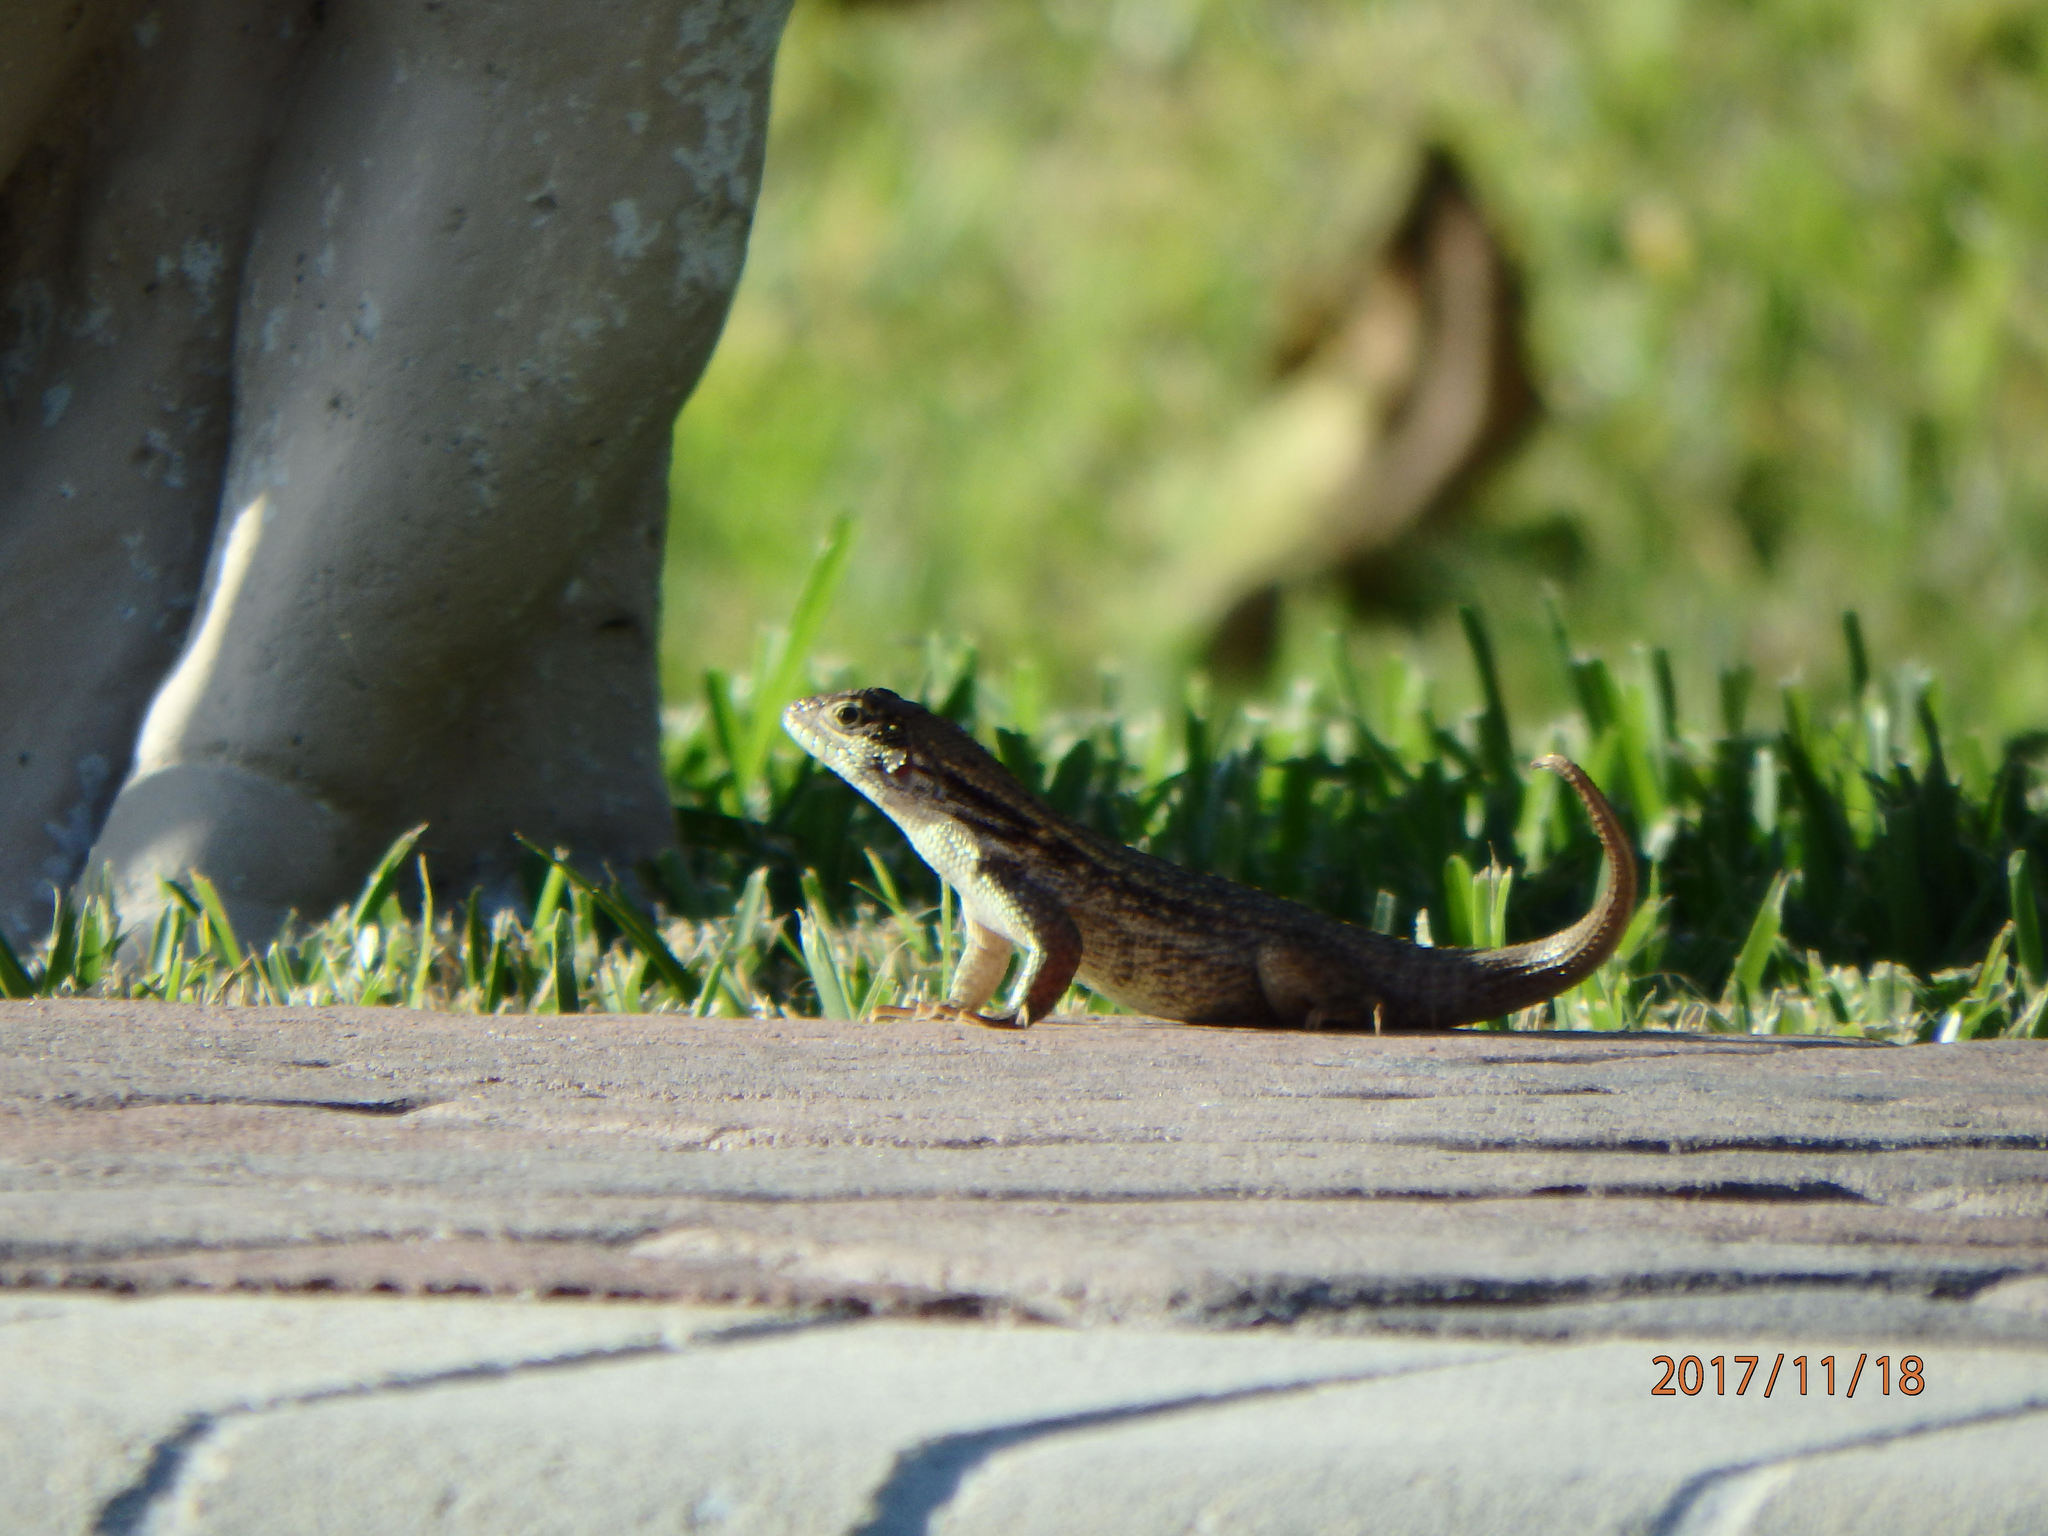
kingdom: Animalia
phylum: Chordata
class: Squamata
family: Leiocephalidae
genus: Leiocephalus
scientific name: Leiocephalus carinatus
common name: Northern curly-tailed lizard
